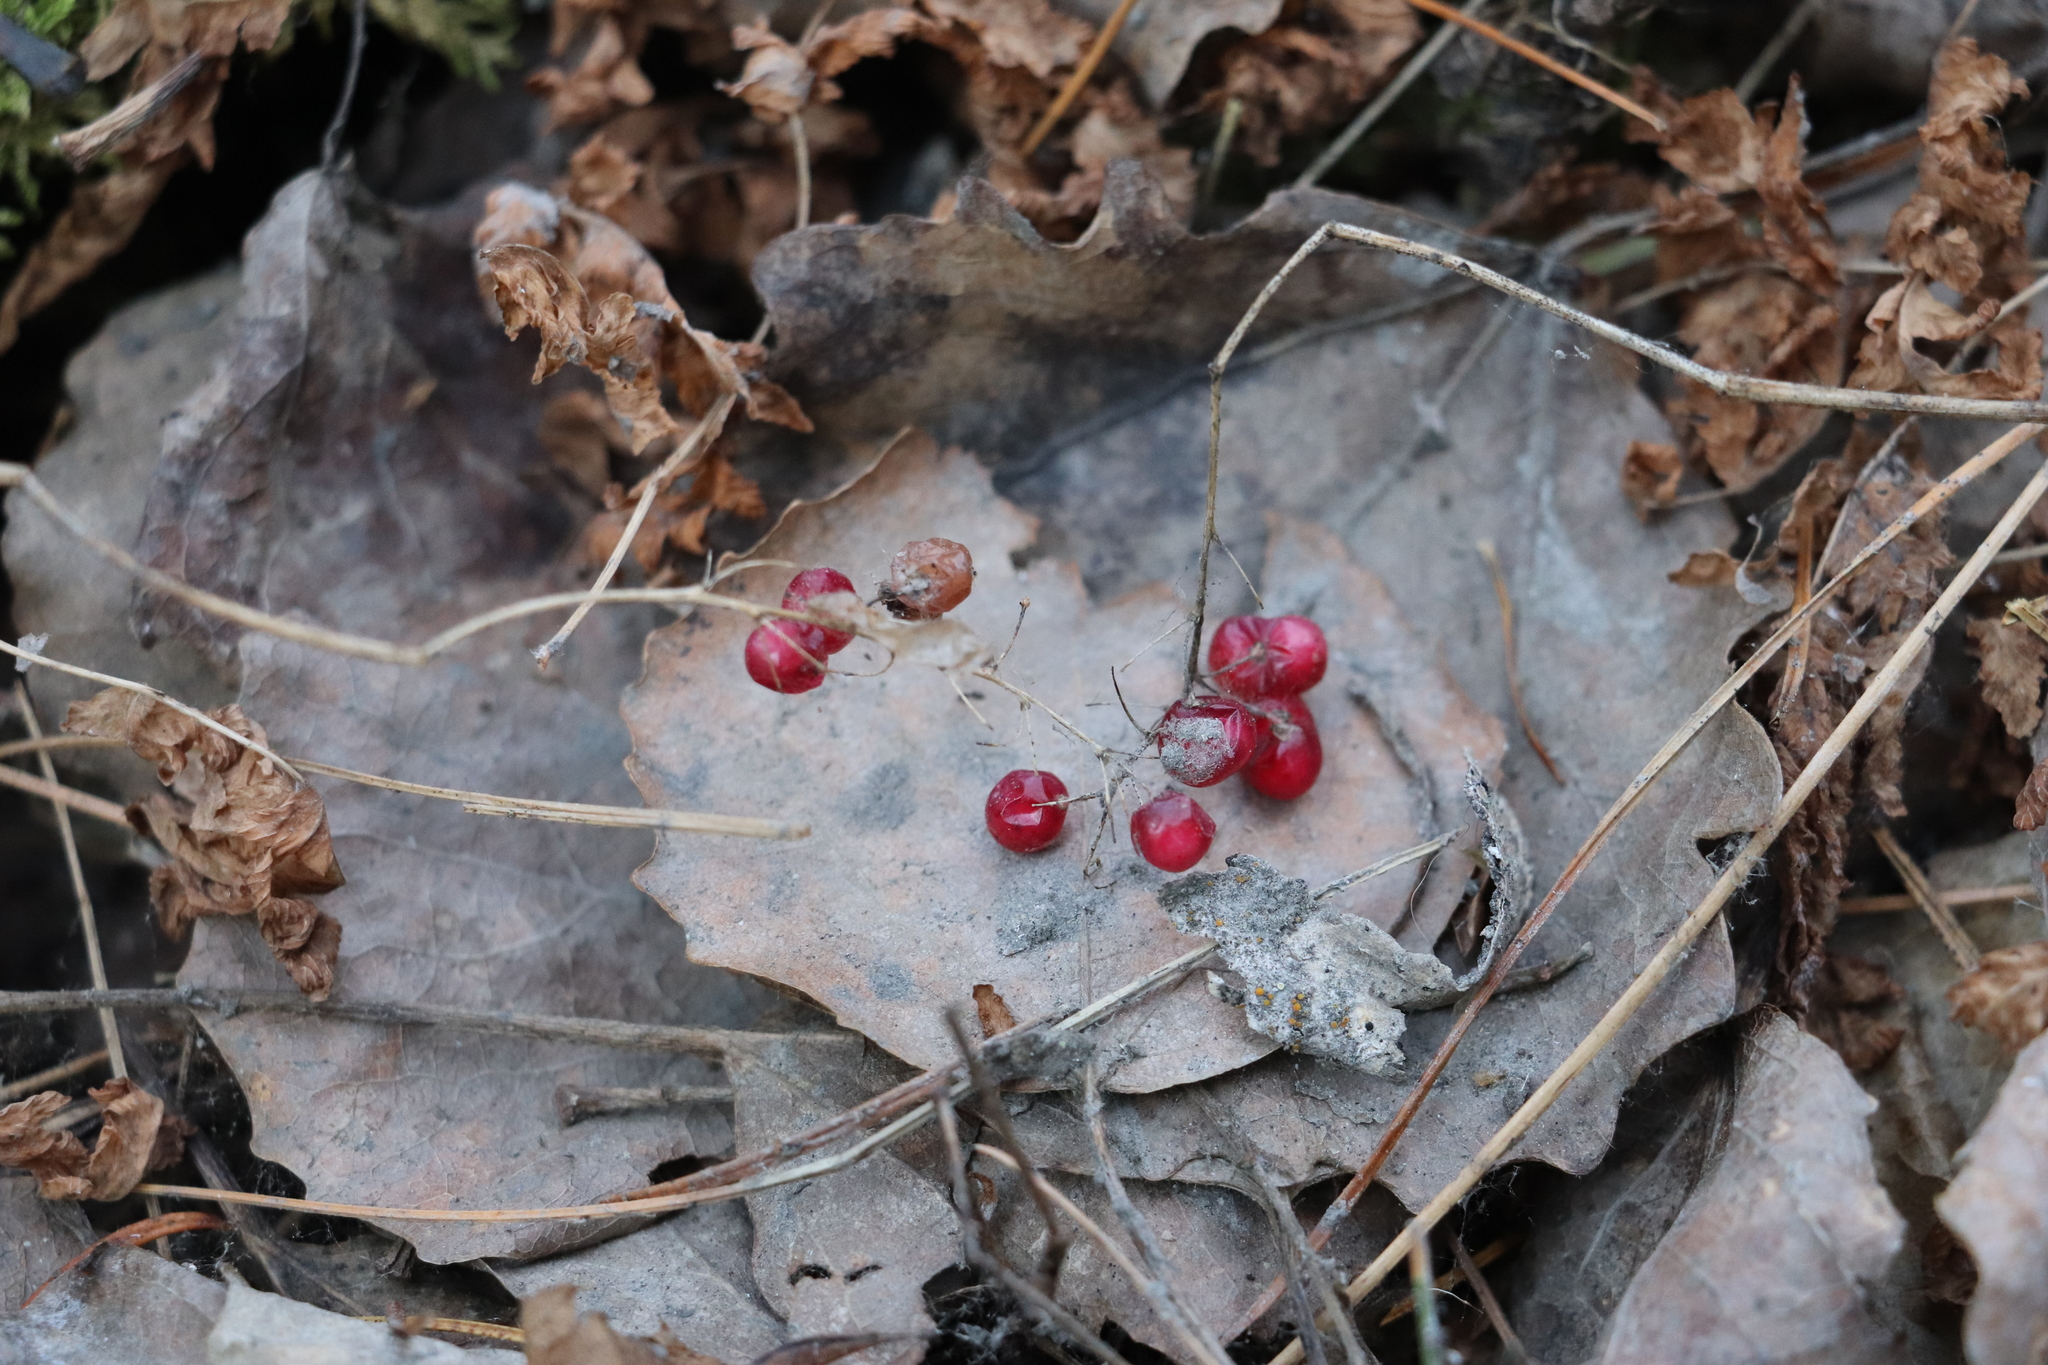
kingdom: Plantae
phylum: Tracheophyta
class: Liliopsida
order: Asparagales
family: Asparagaceae
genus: Maianthemum
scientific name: Maianthemum bifolium
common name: May lily
